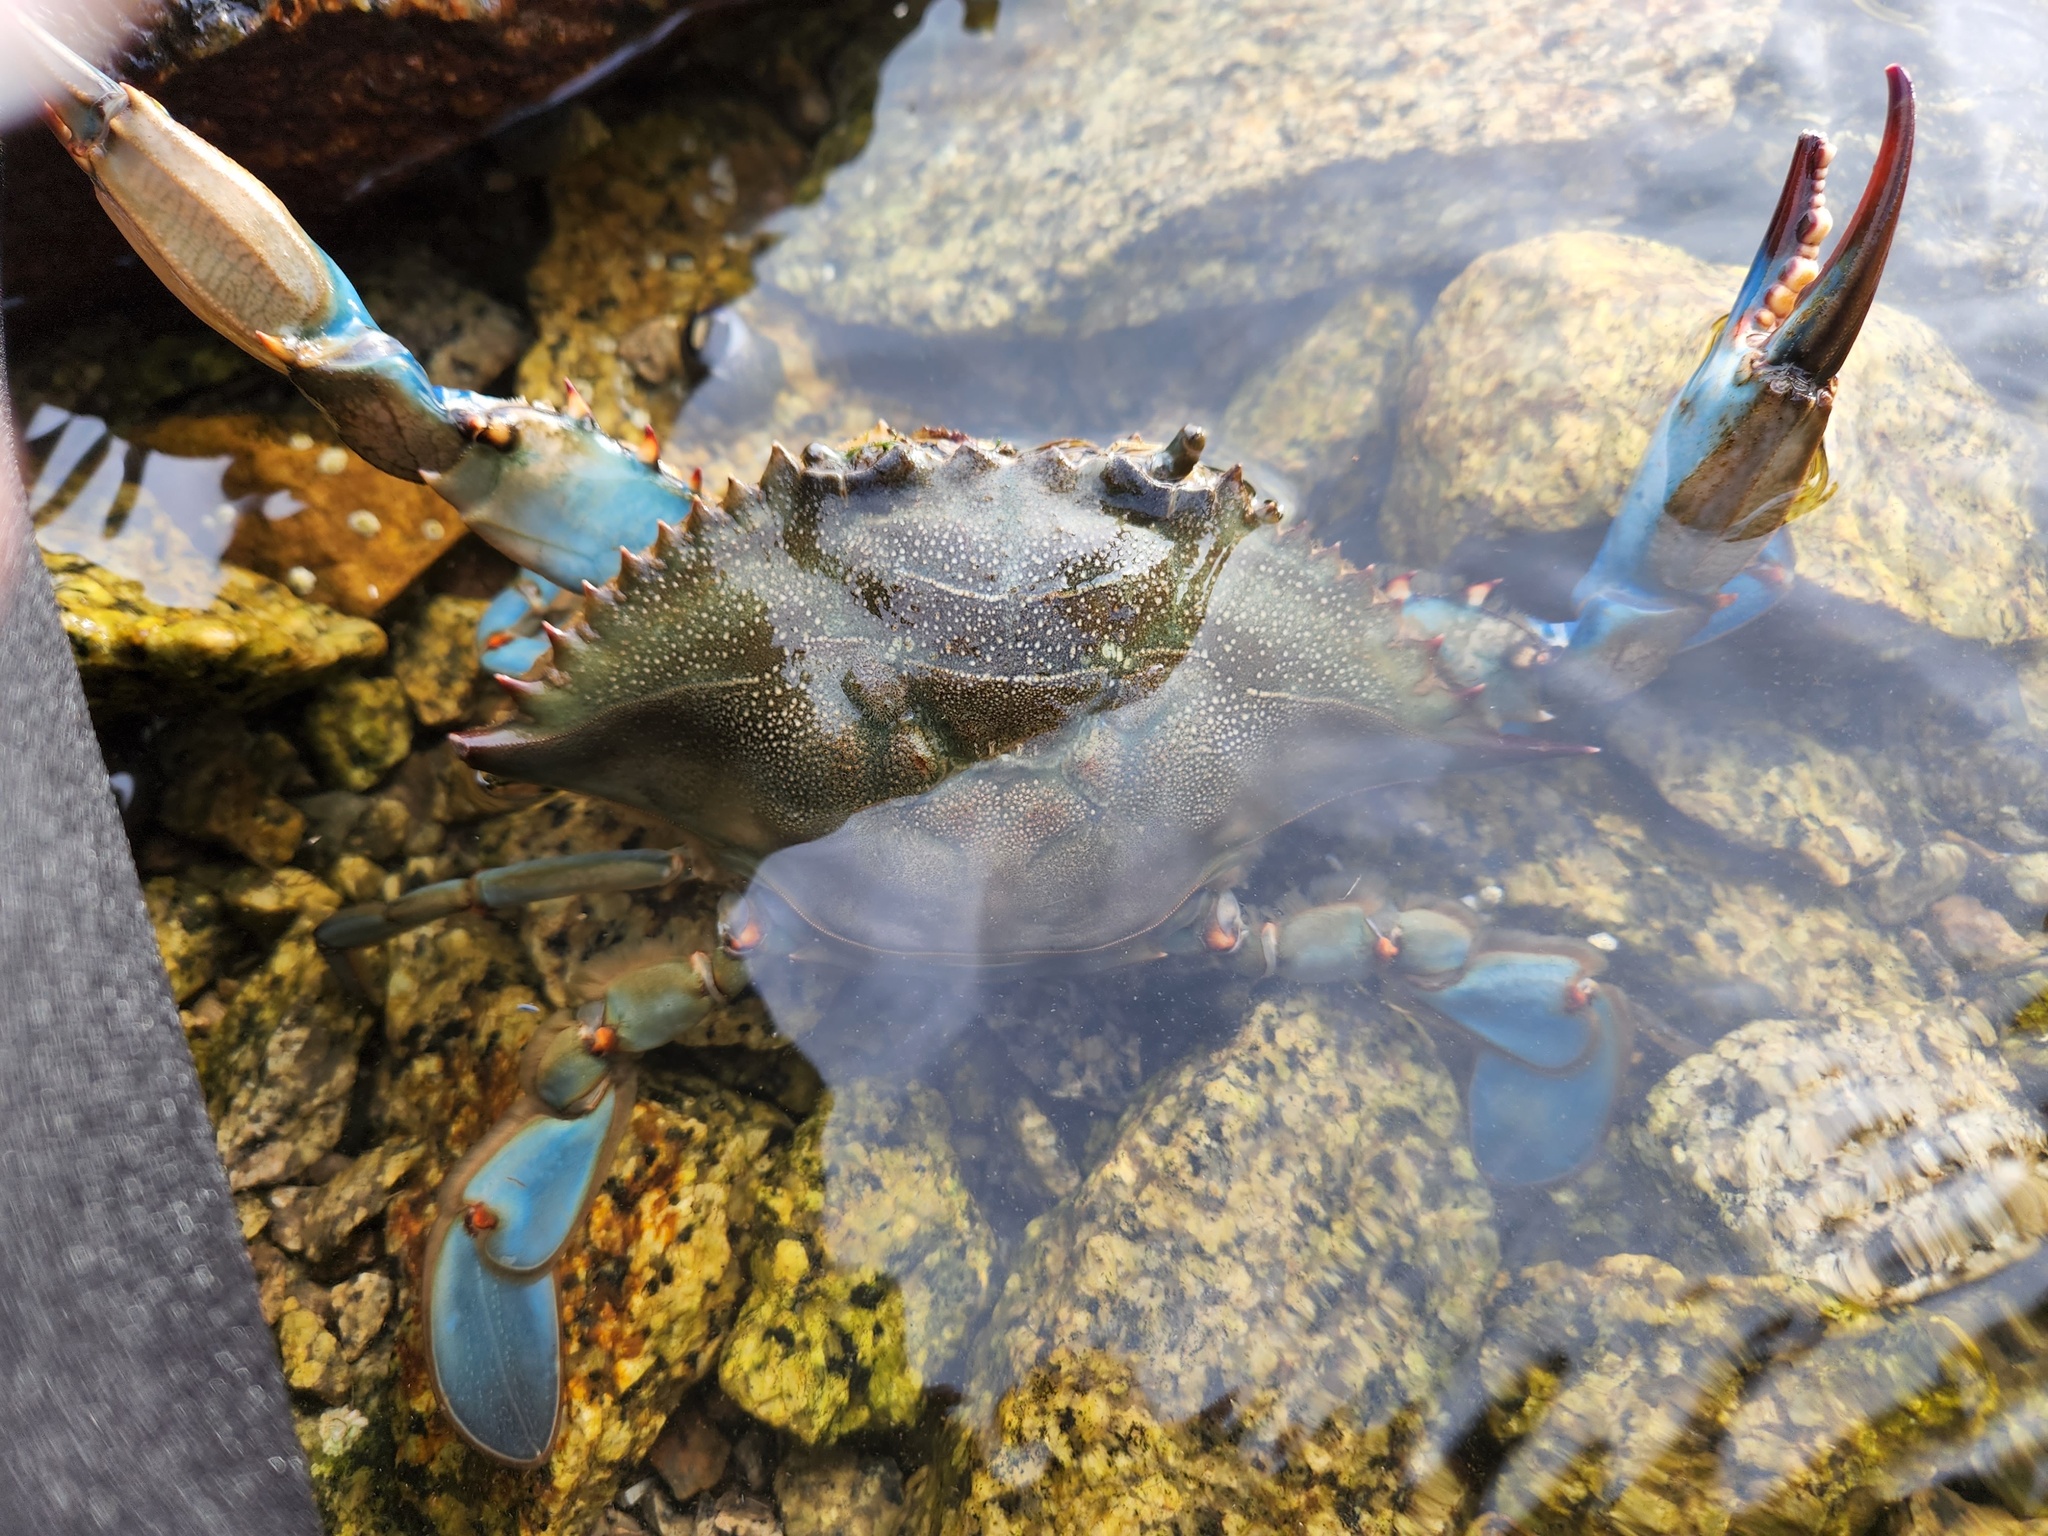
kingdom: Animalia
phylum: Arthropoda
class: Malacostraca
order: Decapoda
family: Portunidae
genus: Callinectes
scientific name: Callinectes sapidus
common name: Blue crab
